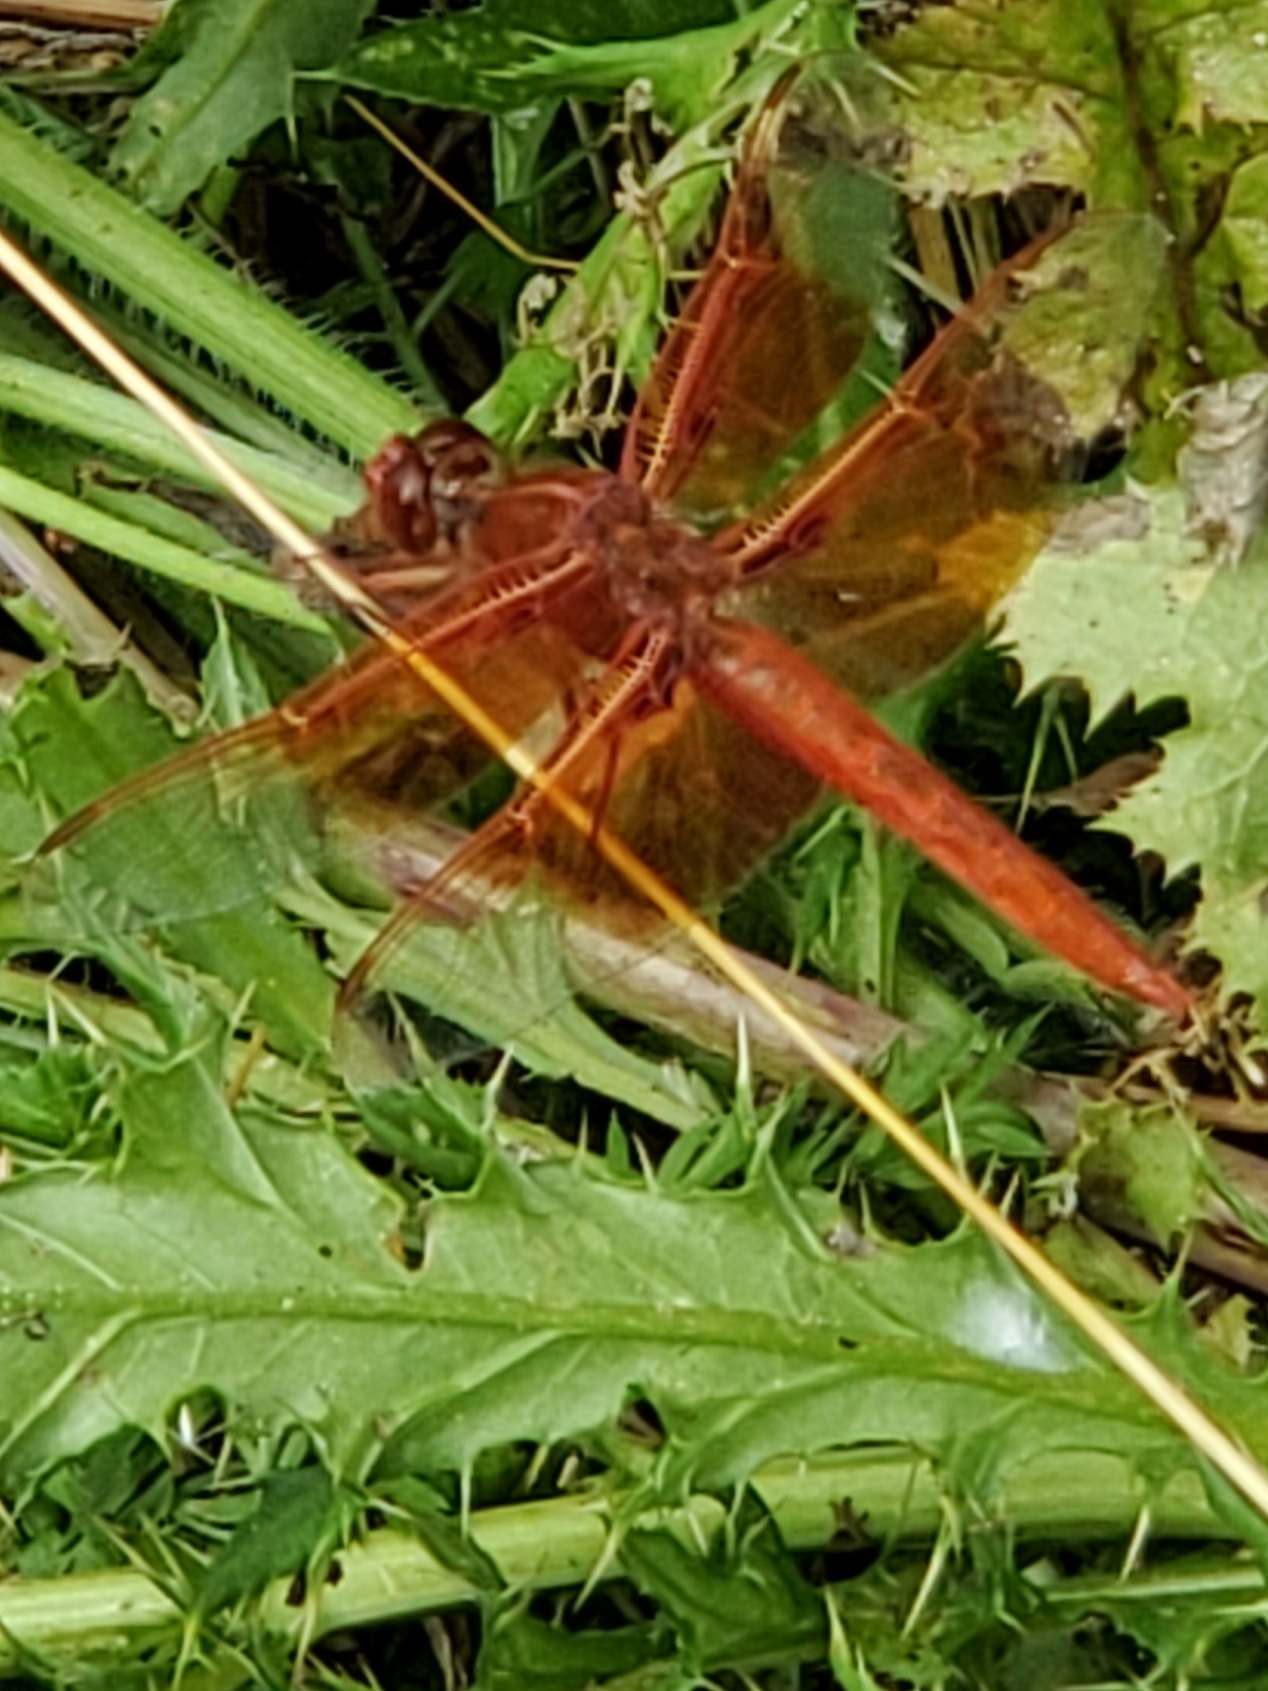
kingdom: Animalia
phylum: Arthropoda
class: Insecta
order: Odonata
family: Libellulidae
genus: Libellula
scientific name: Libellula saturata
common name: Flame skimmer
